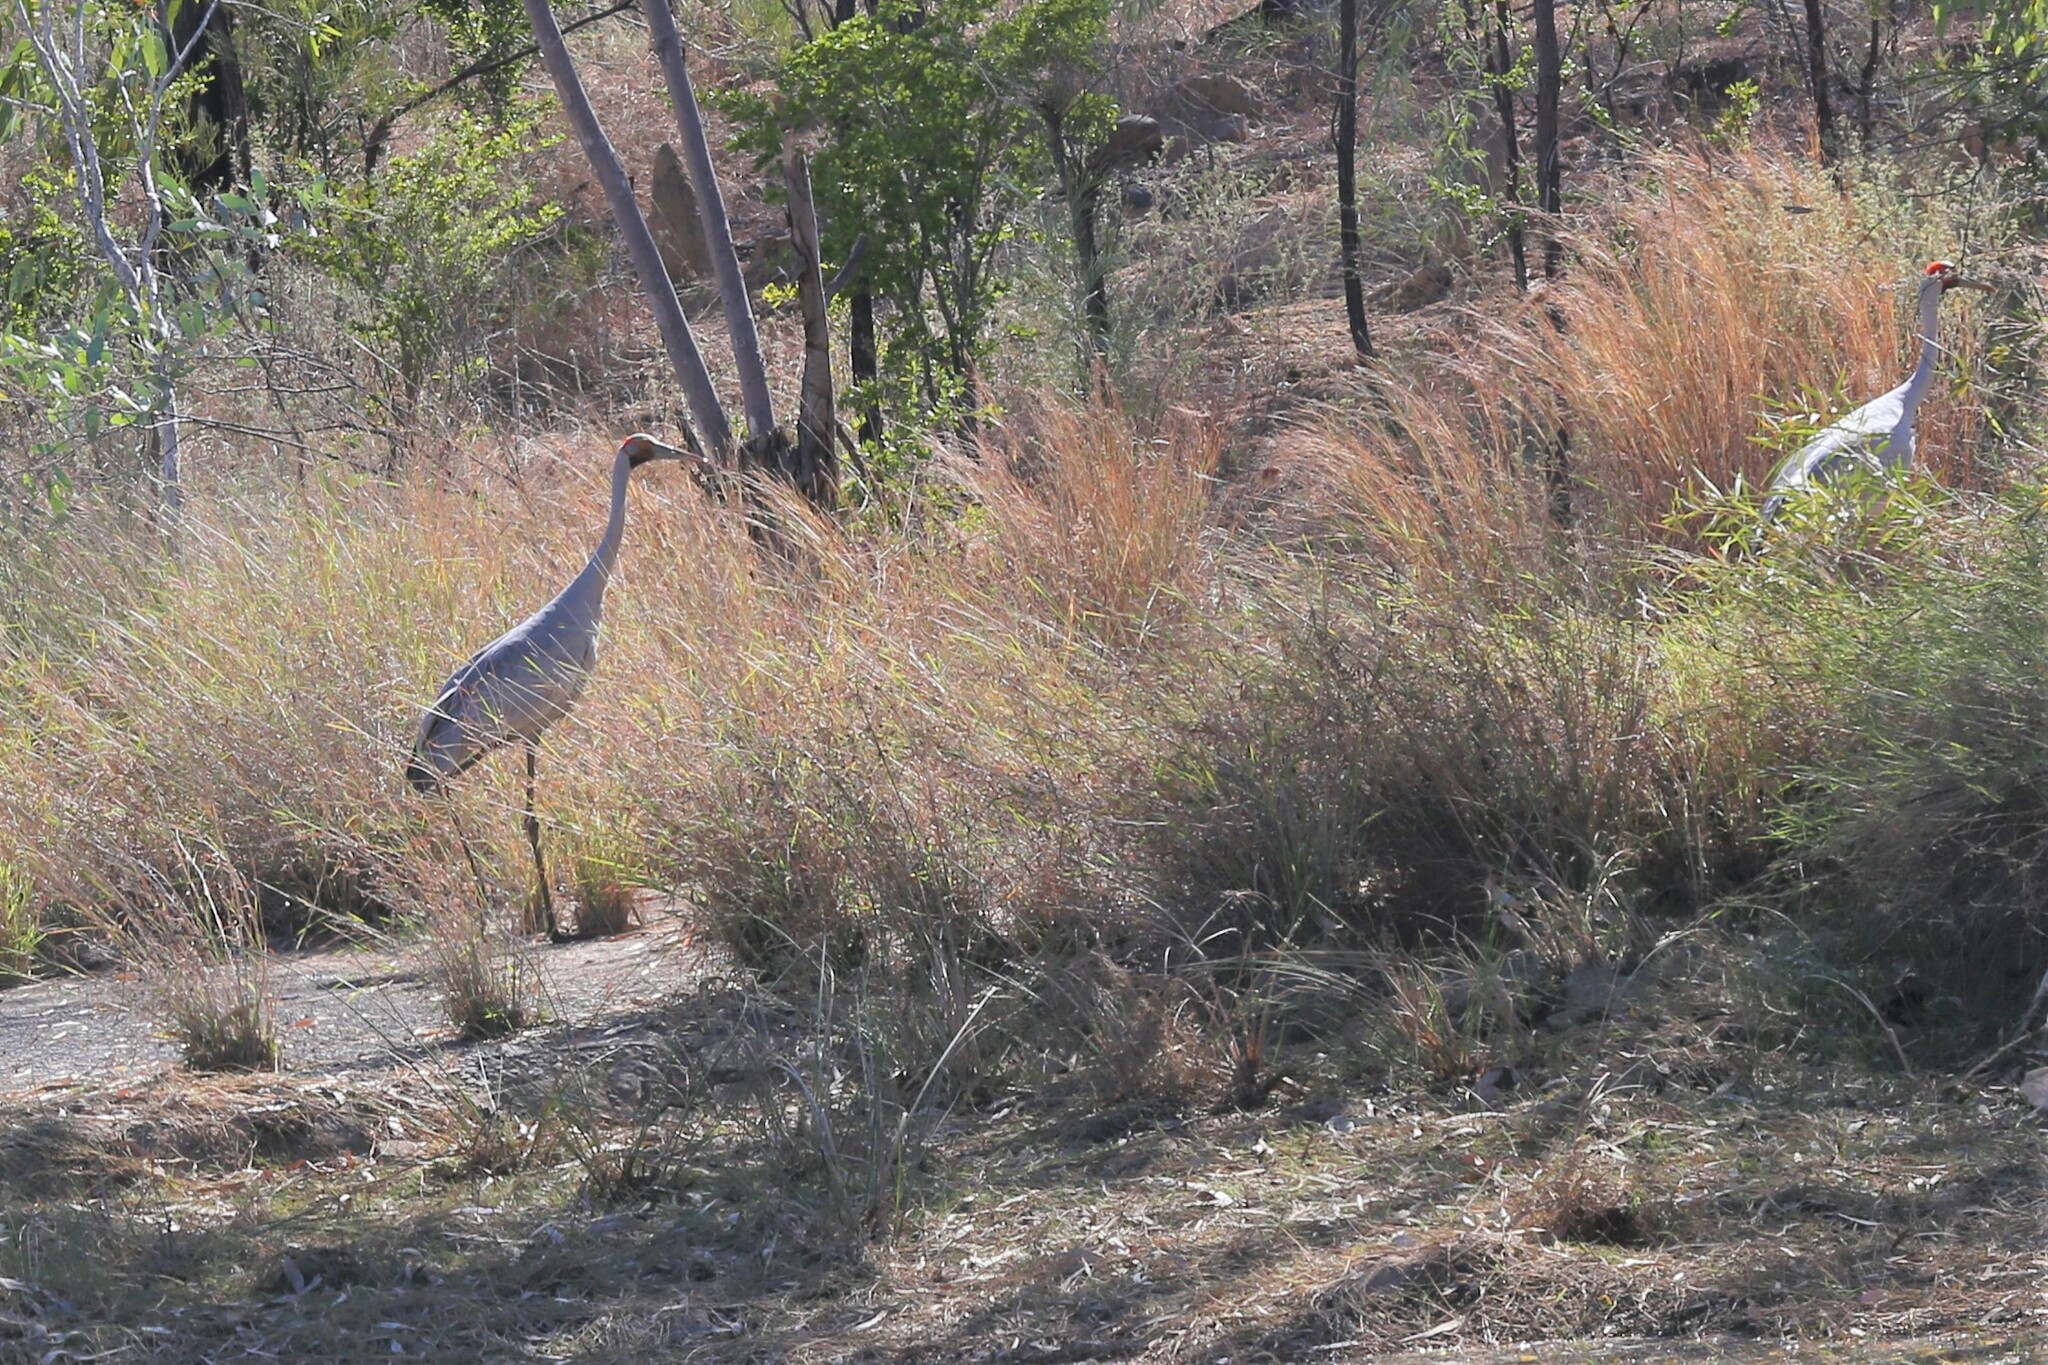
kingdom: Animalia
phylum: Chordata
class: Aves
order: Gruiformes
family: Gruidae
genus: Grus
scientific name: Grus rubicunda
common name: Brolga
